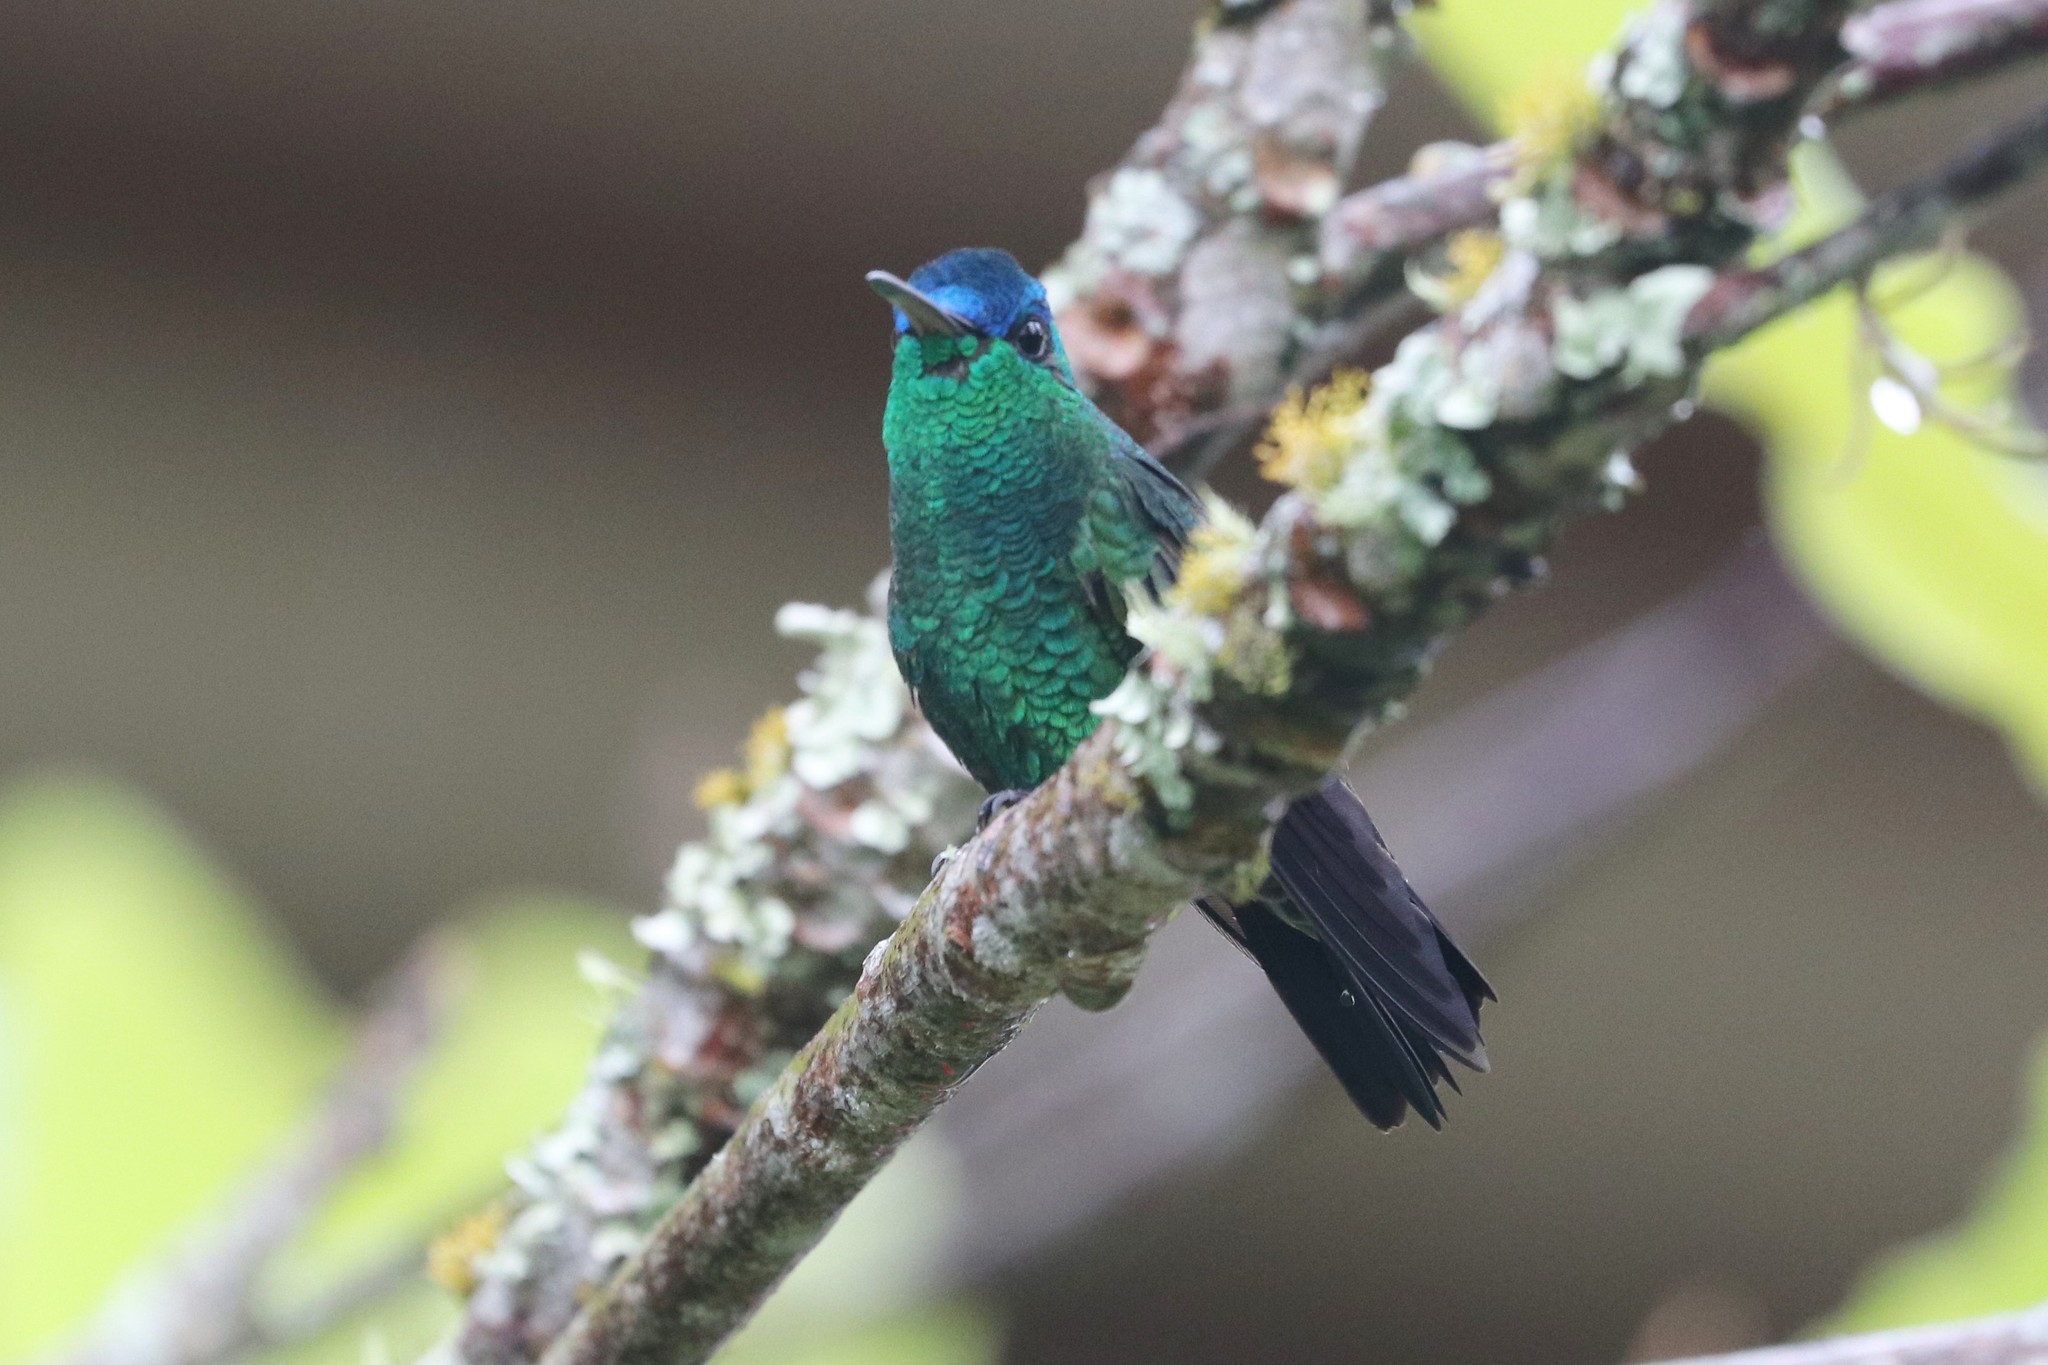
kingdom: Animalia
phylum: Chordata
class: Aves
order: Apodiformes
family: Trochilidae
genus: Saucerottia
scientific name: Saucerottia cyanifrons
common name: Indigo-capped hummingbird
